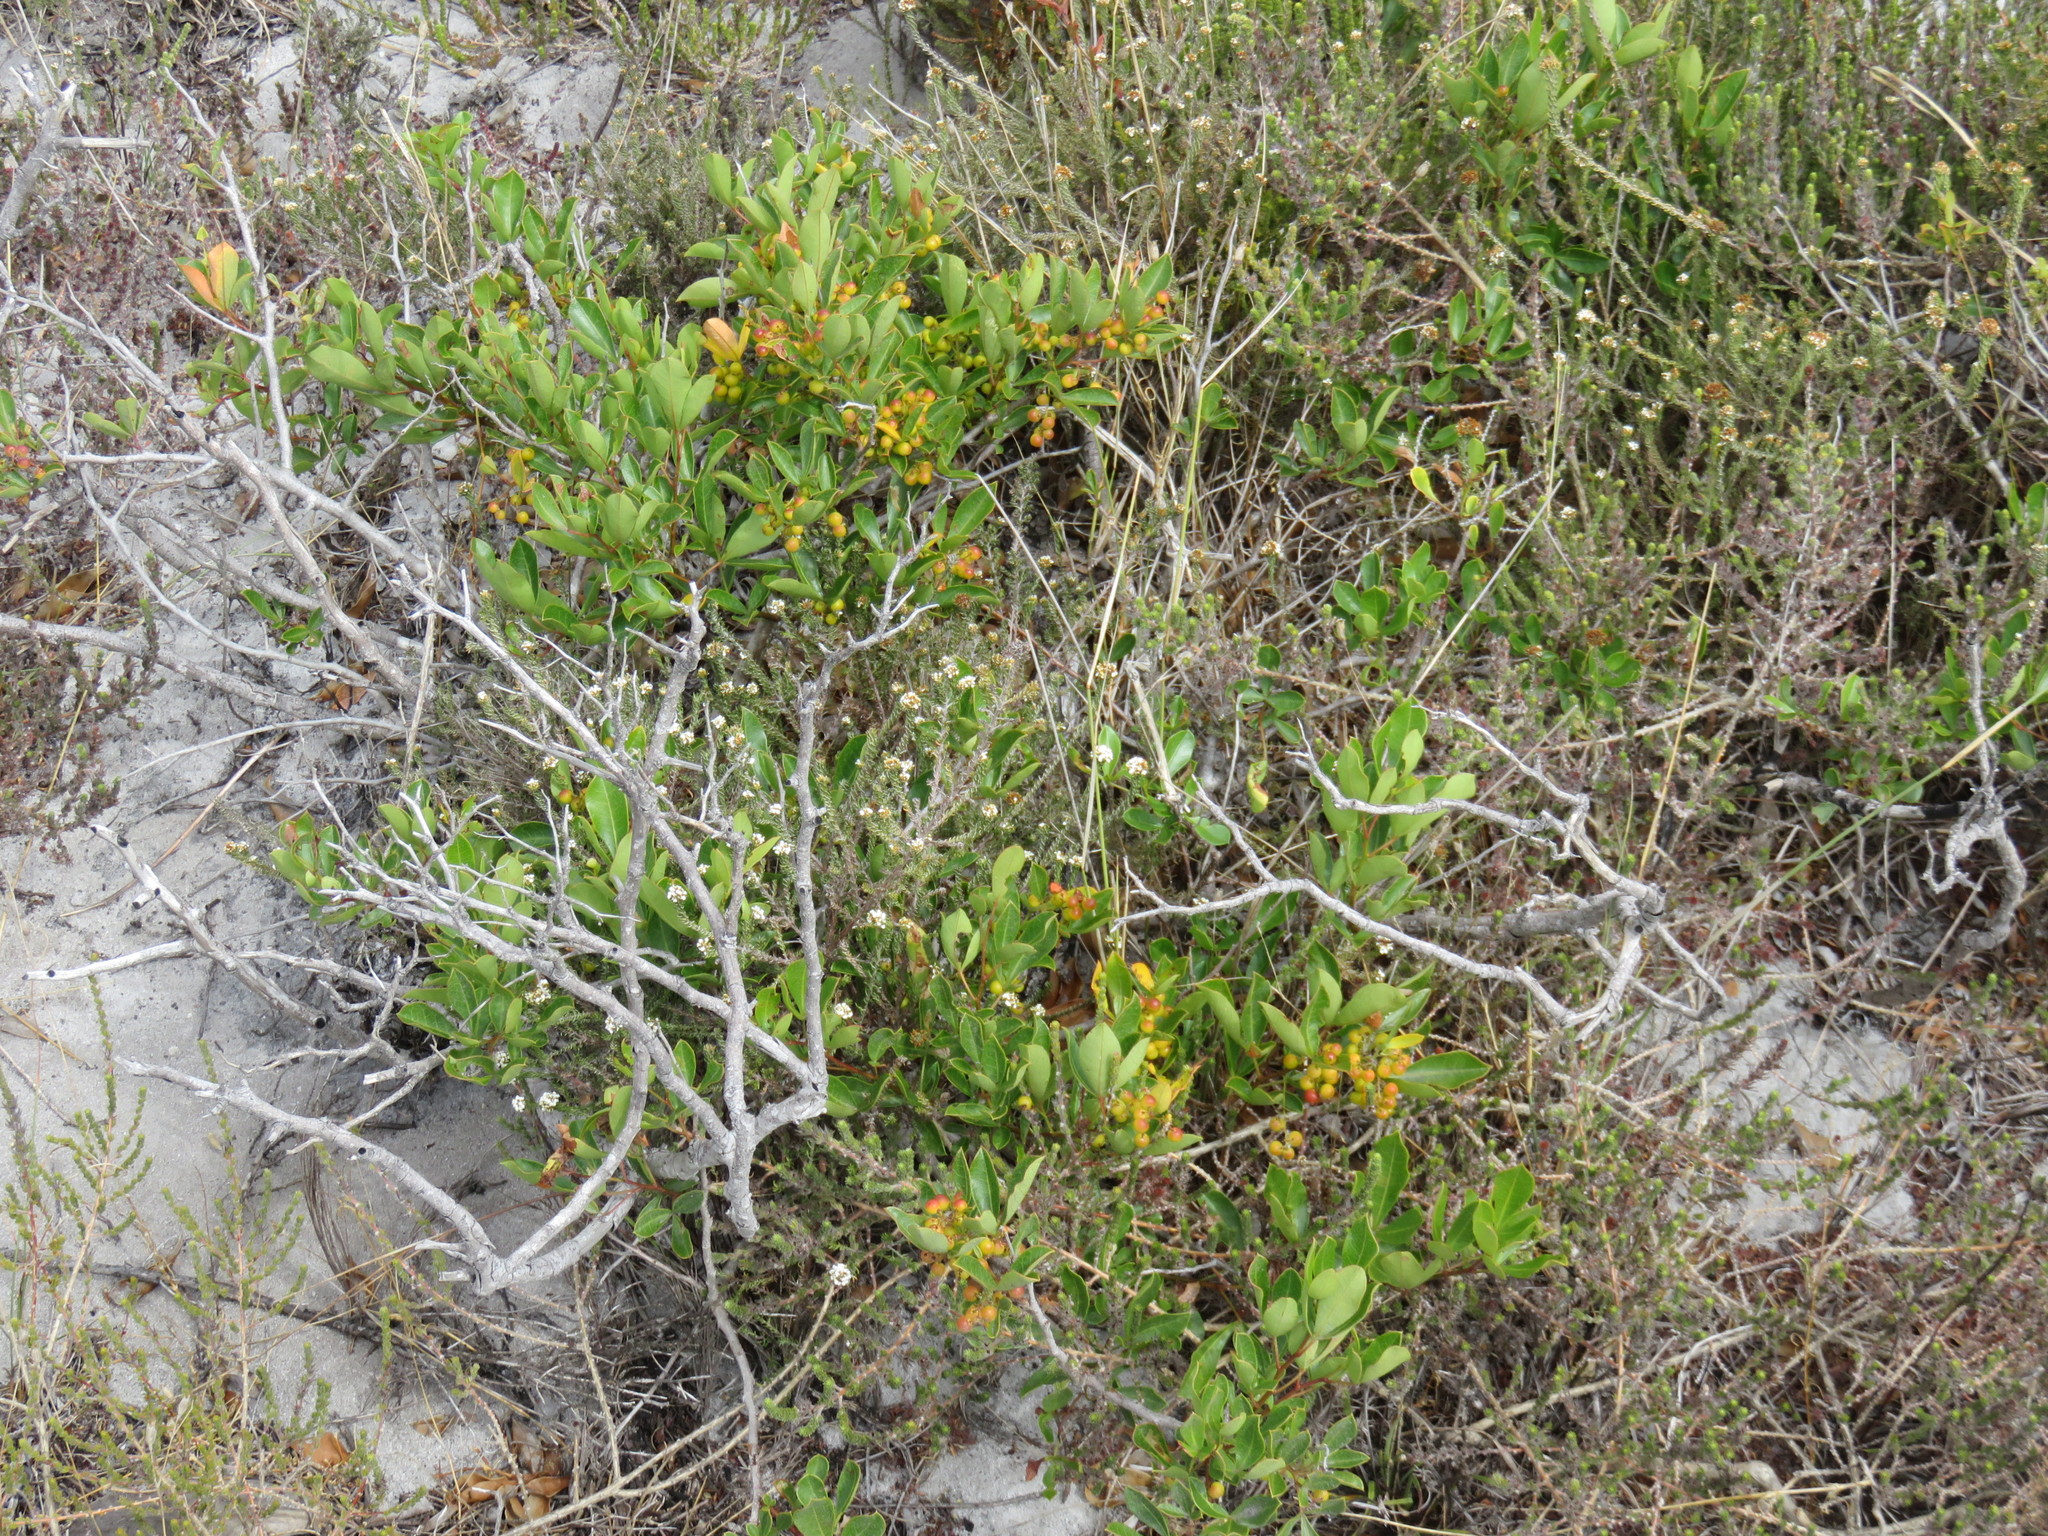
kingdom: Plantae
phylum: Tracheophyta
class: Magnoliopsida
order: Sapindales
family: Anacardiaceae
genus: Searsia
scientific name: Searsia laevigata
